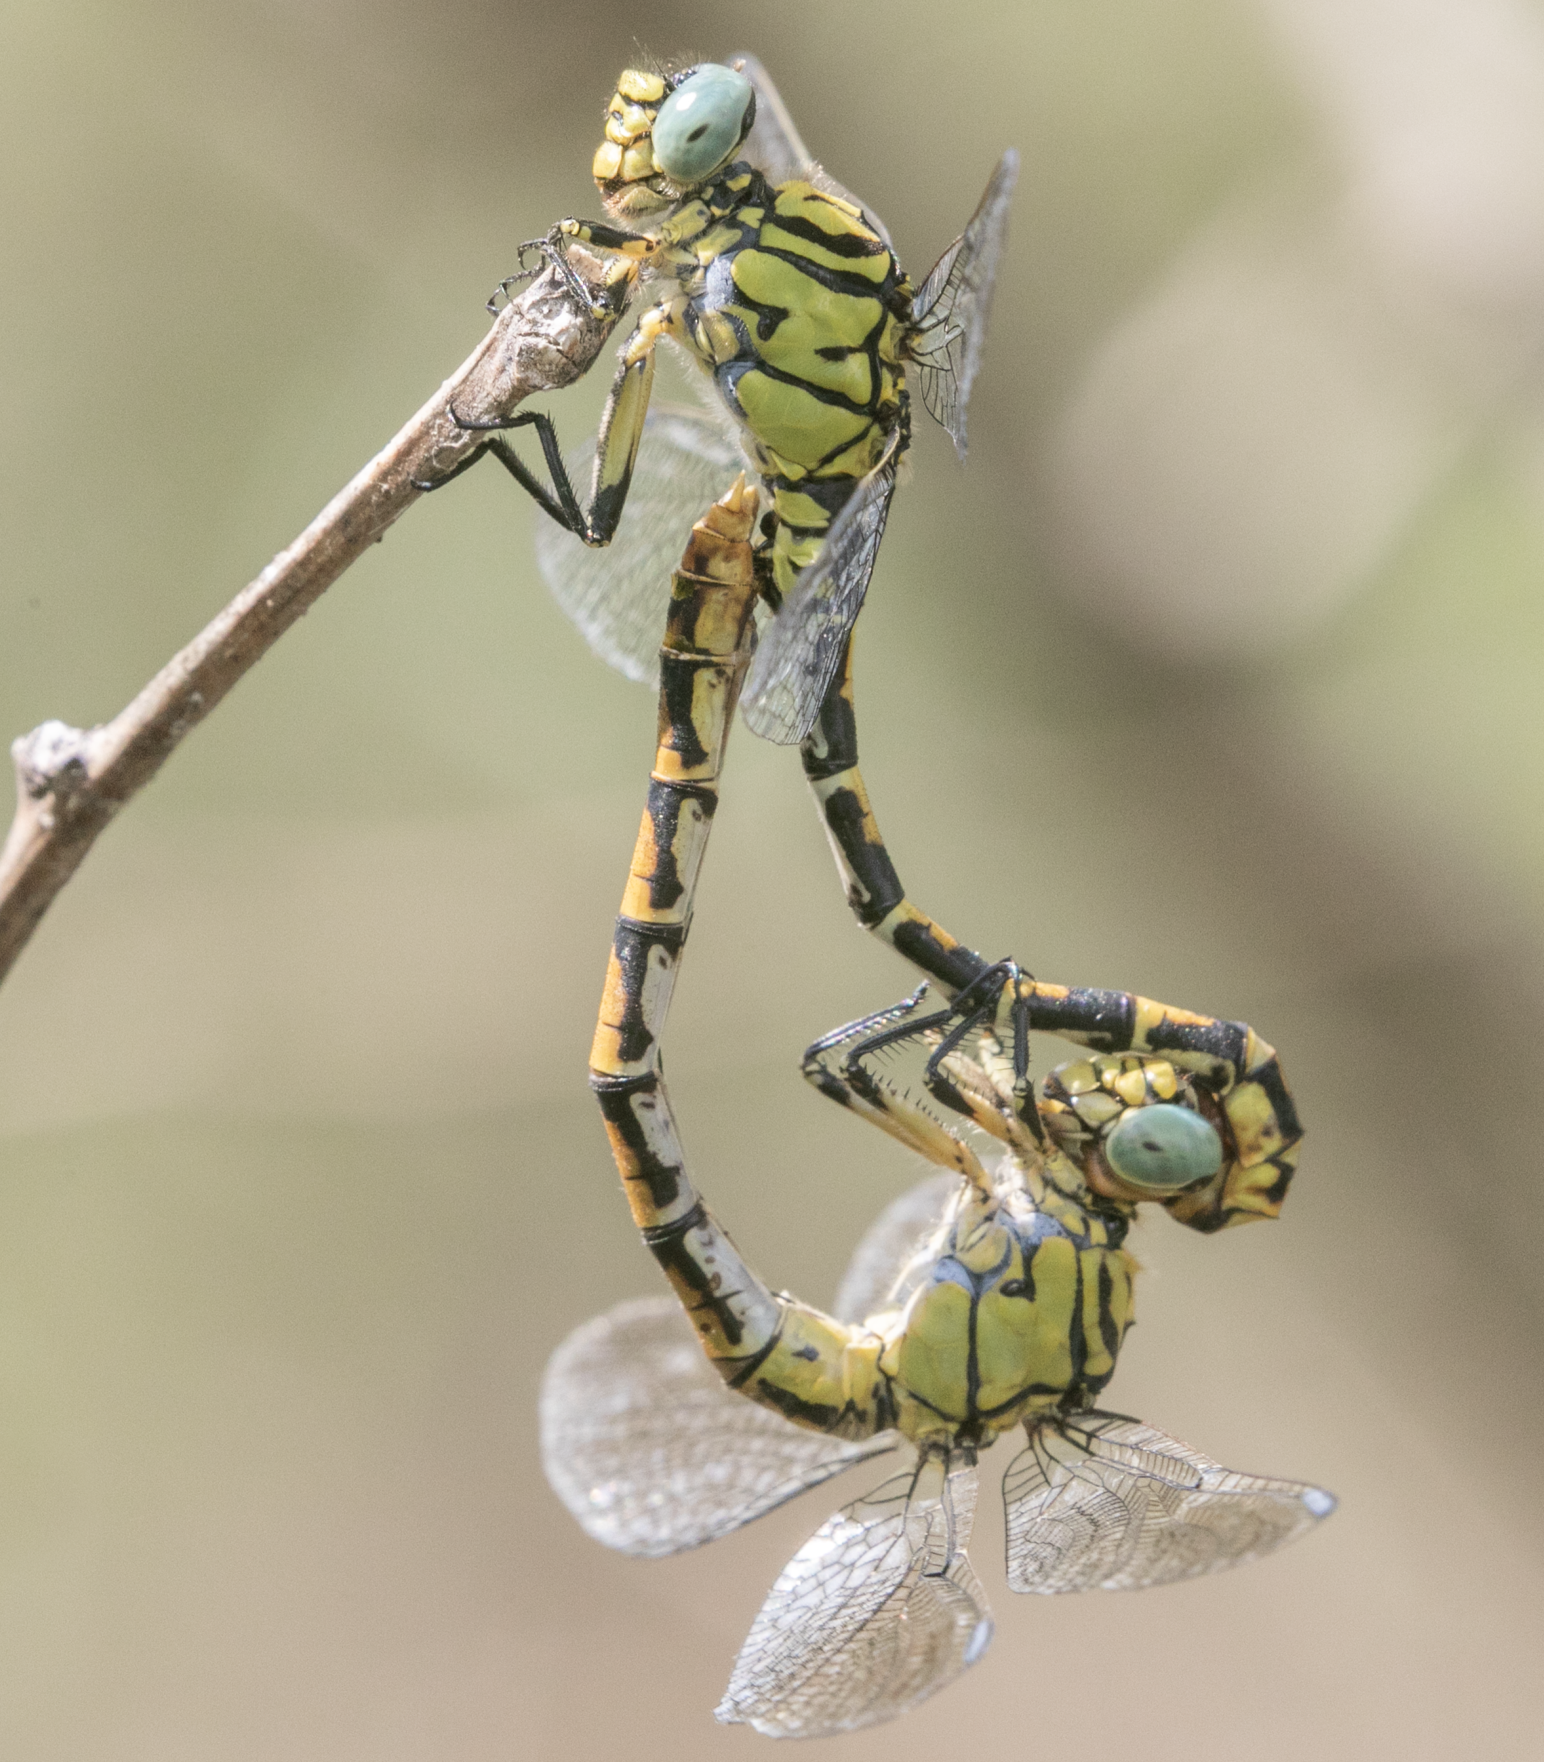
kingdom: Animalia
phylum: Arthropoda
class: Insecta
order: Odonata
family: Gomphidae
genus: Onychogomphus
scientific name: Onychogomphus forcipatus
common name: Small pincertail
